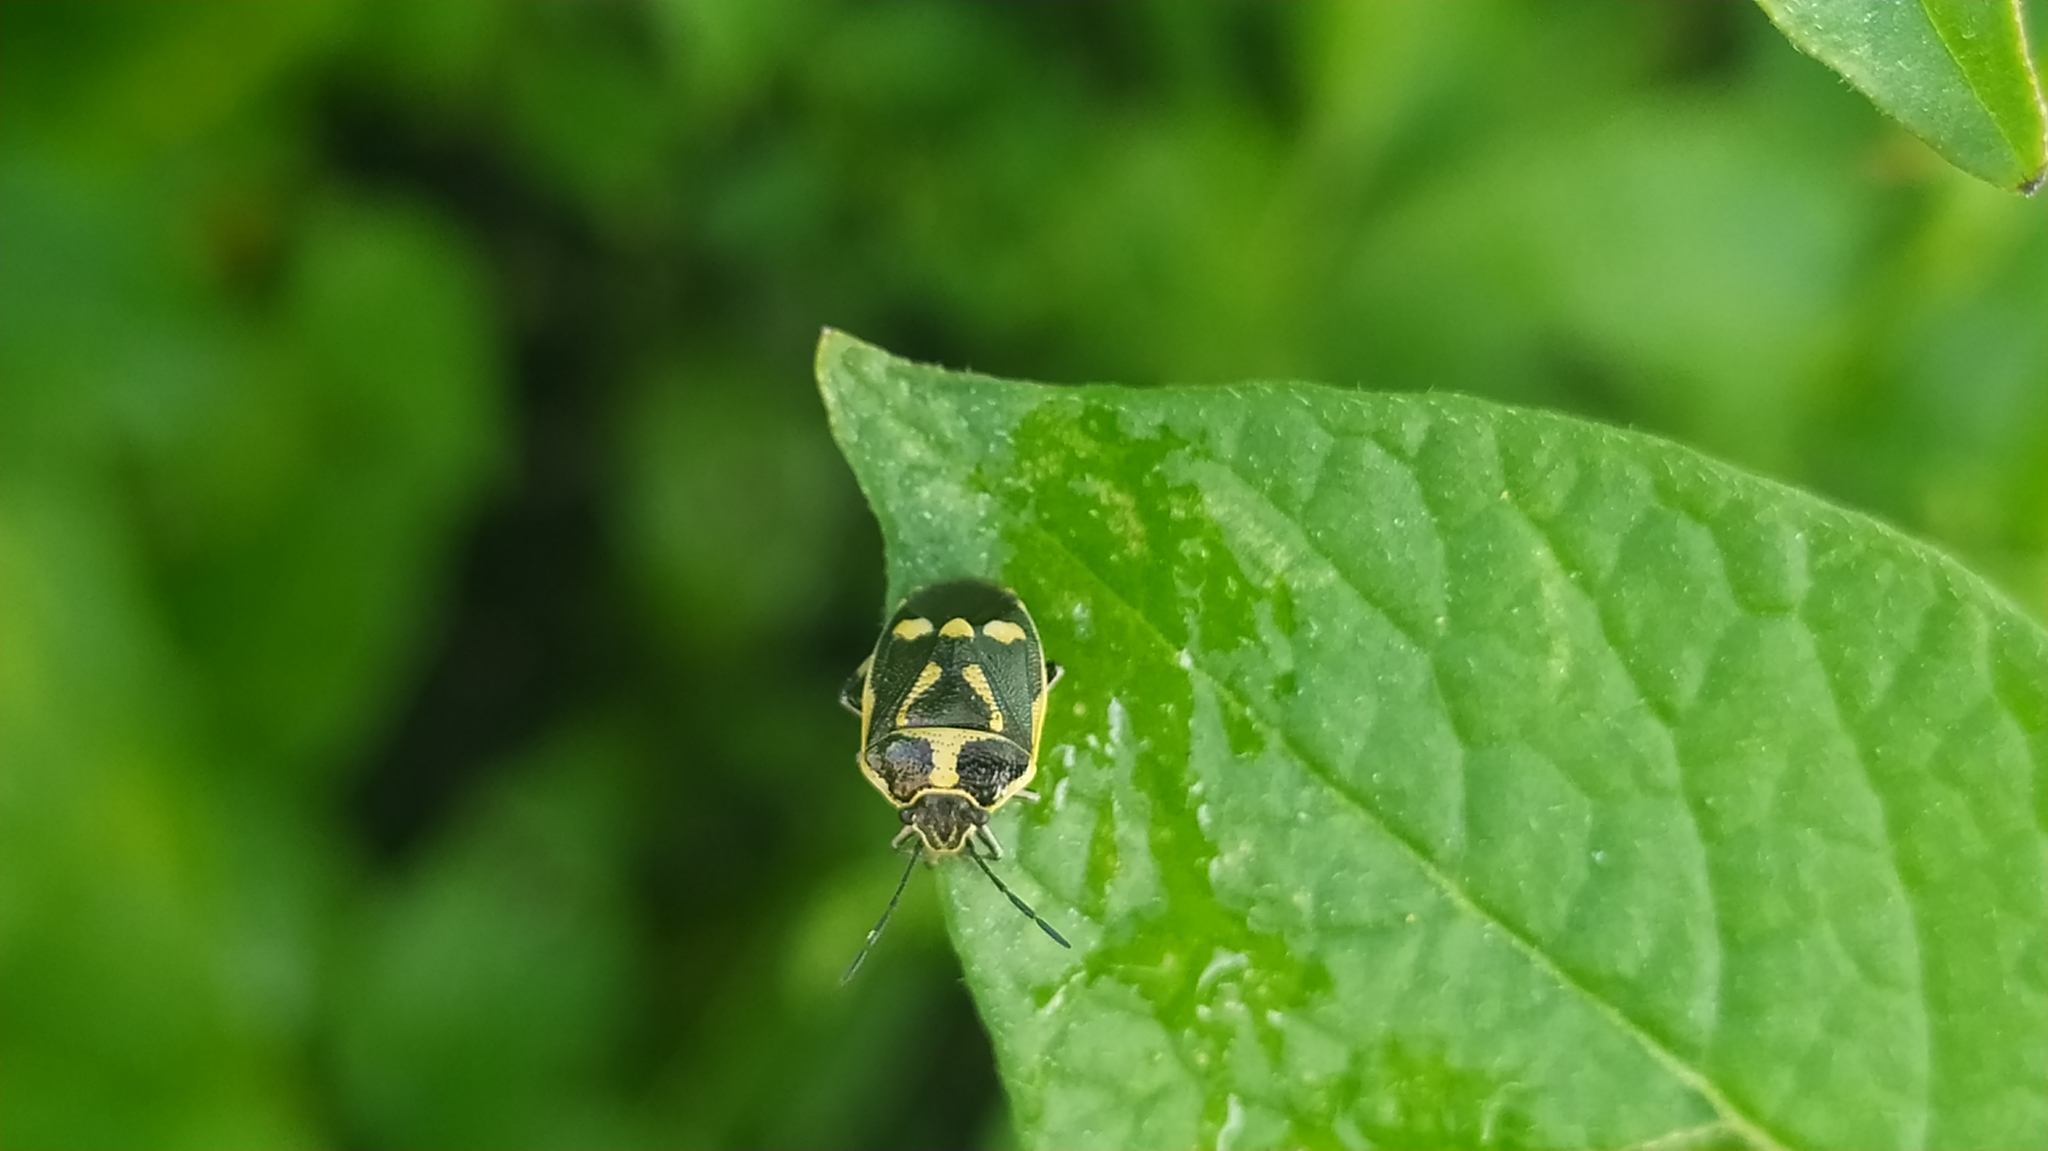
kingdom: Animalia
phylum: Arthropoda
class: Insecta
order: Hemiptera
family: Pentatomidae
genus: Eurydema
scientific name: Eurydema oleracea
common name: Cabbage bug
